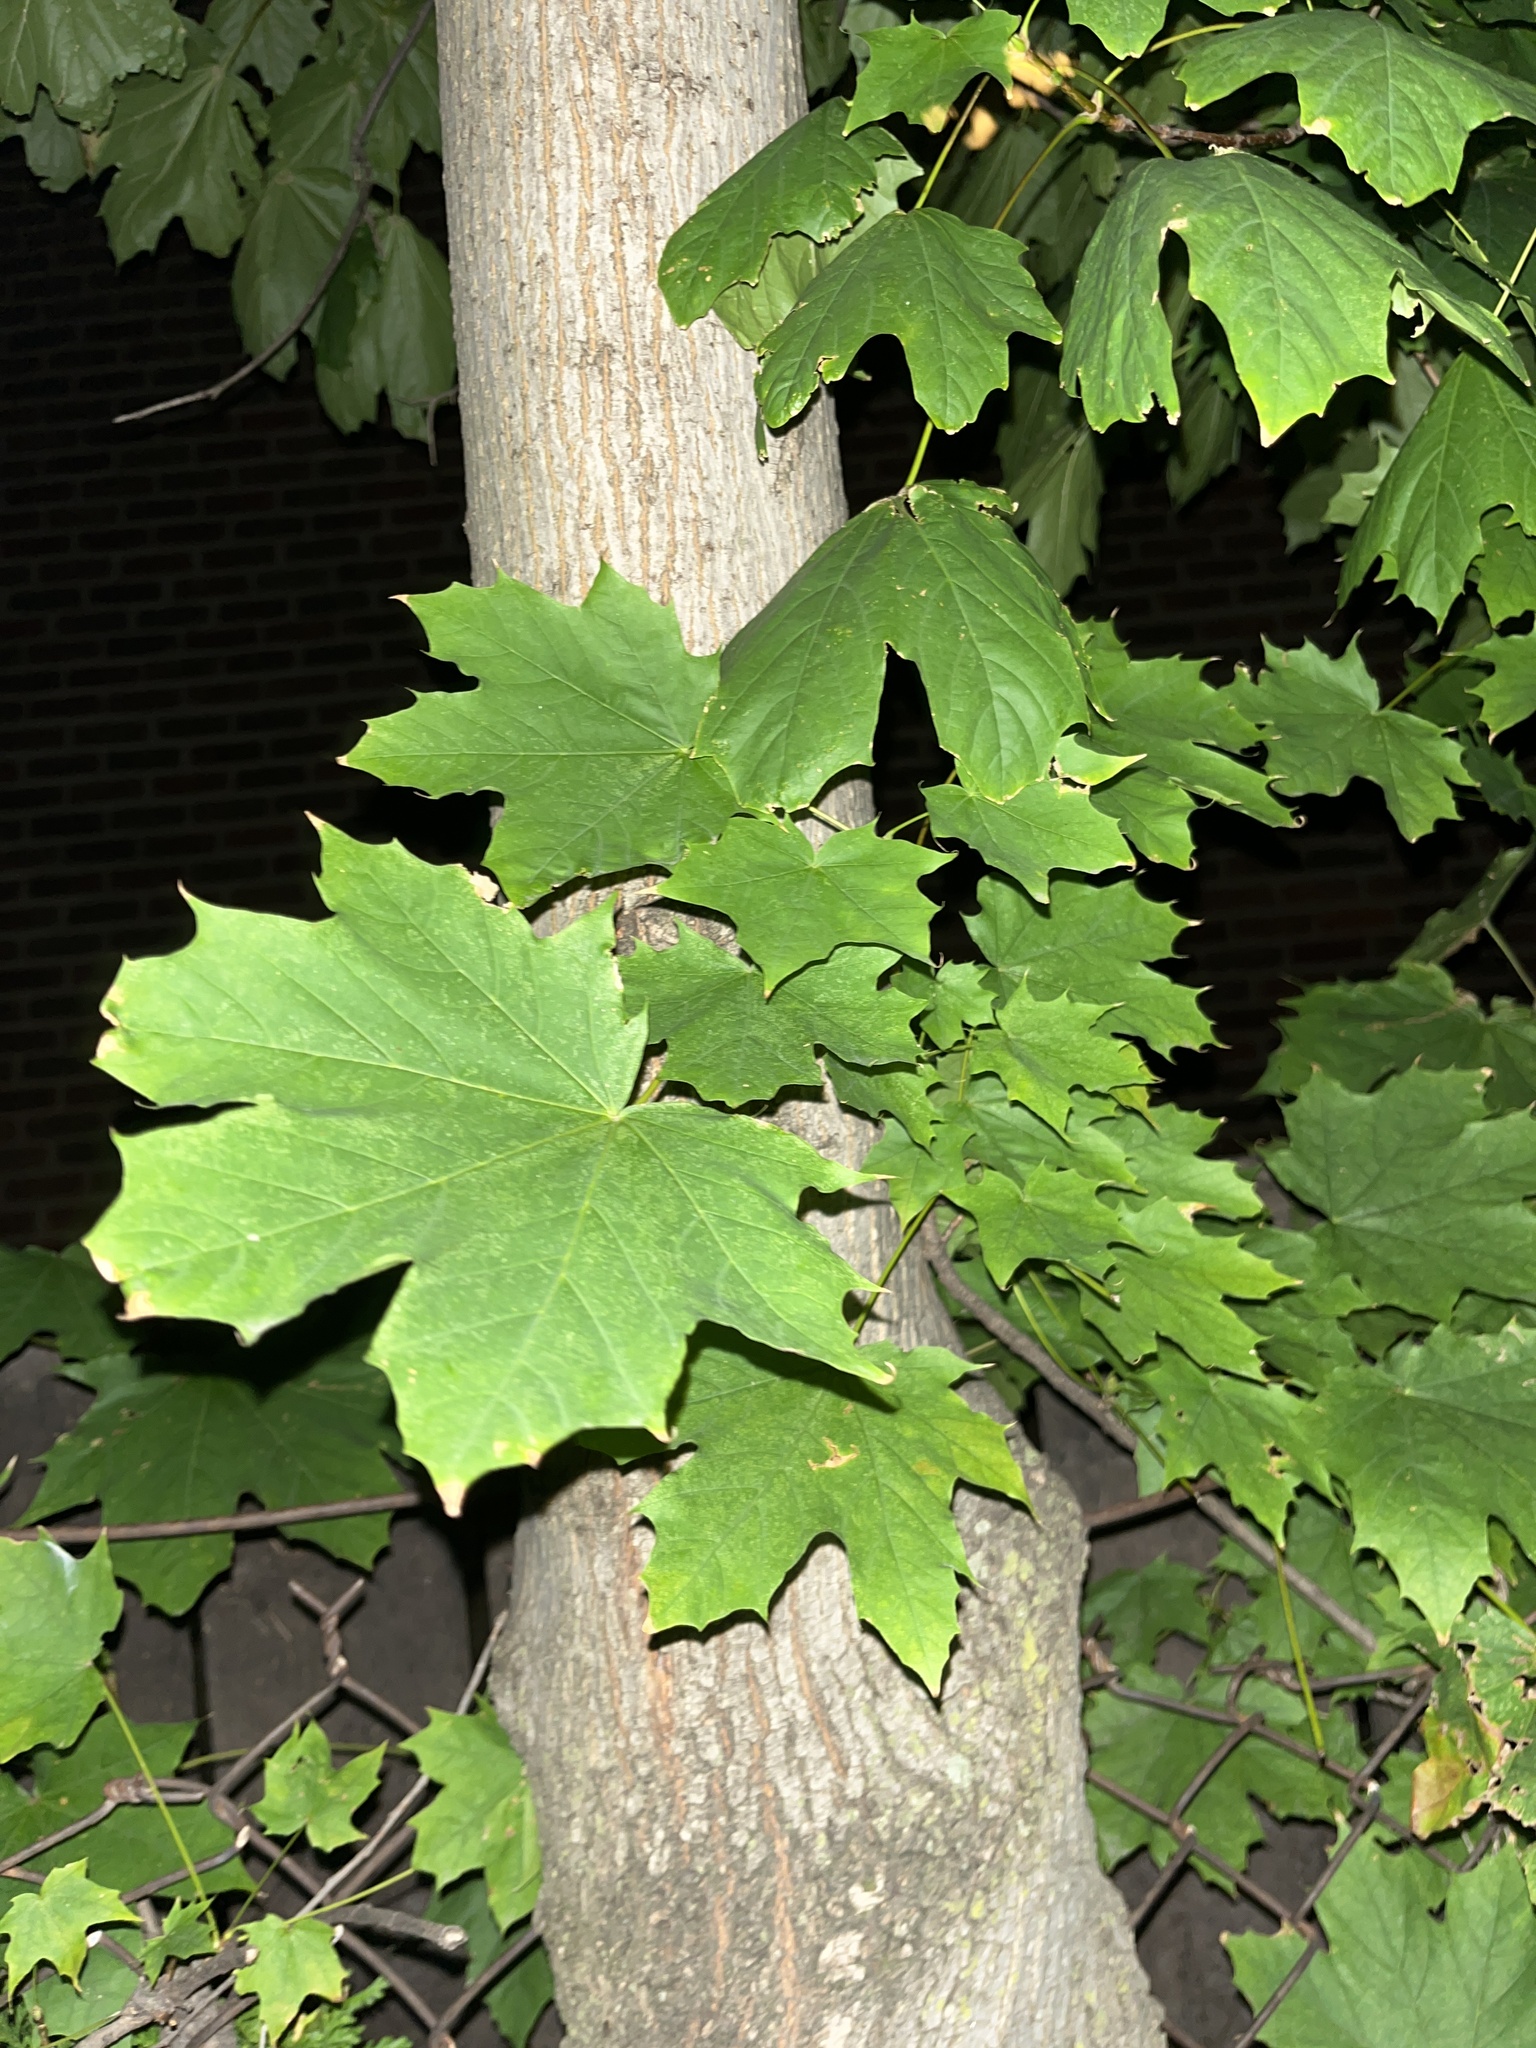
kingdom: Plantae
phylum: Tracheophyta
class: Magnoliopsida
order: Sapindales
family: Sapindaceae
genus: Acer
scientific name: Acer platanoides
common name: Norway maple
